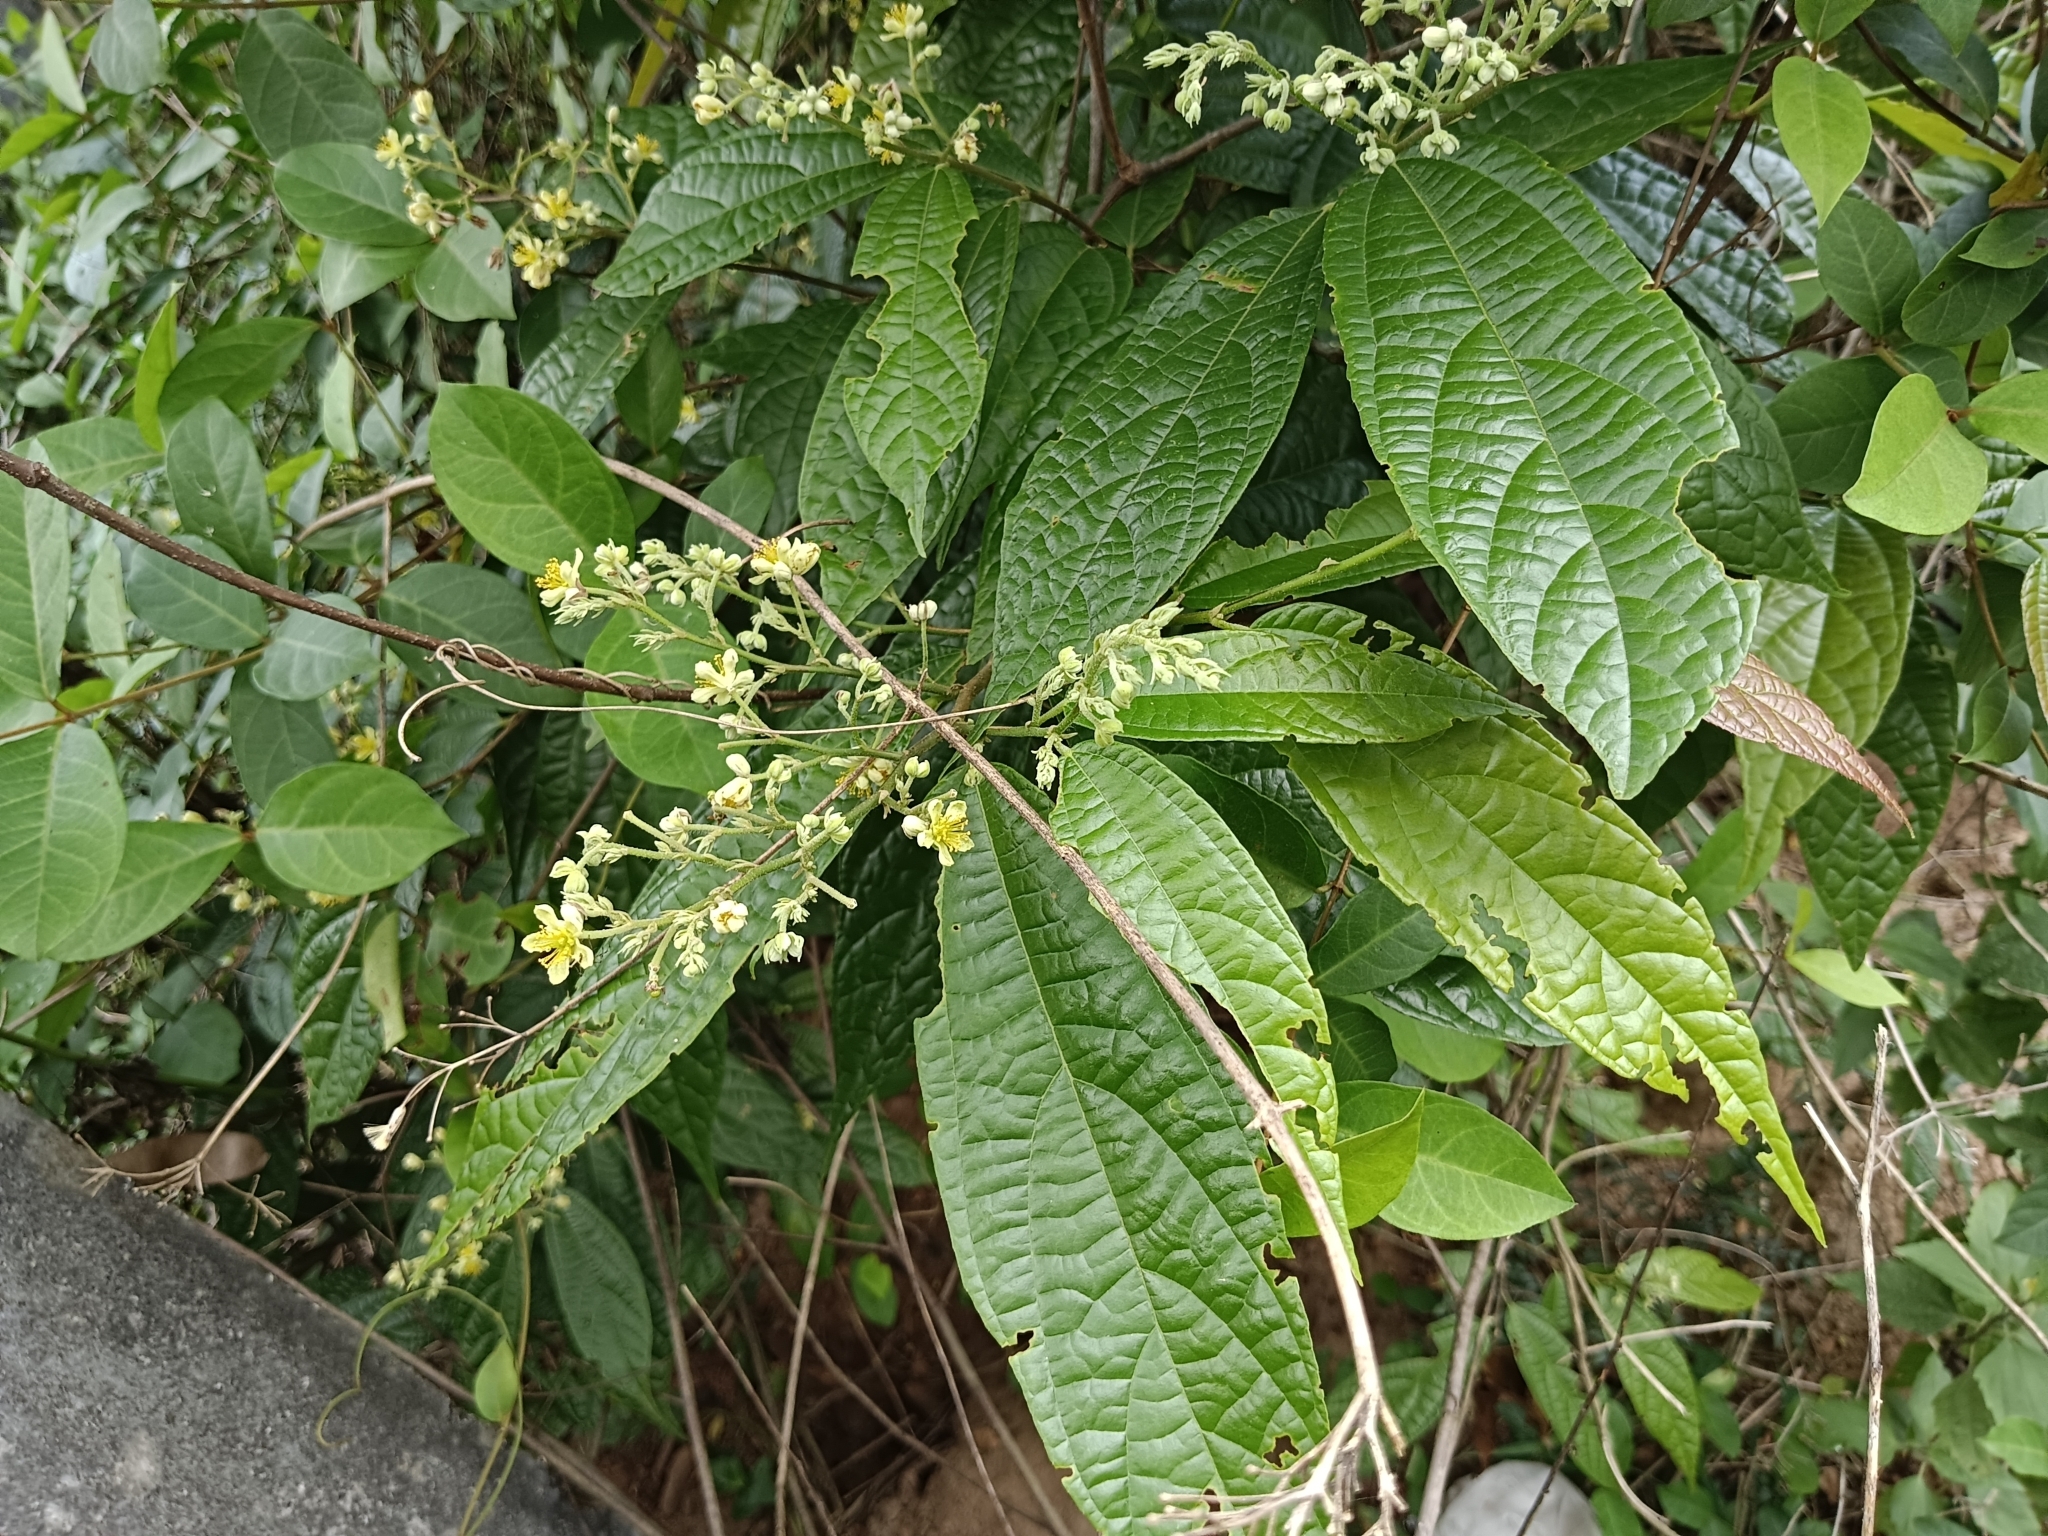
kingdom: Plantae
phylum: Tracheophyta
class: Magnoliopsida
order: Malvales
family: Malvaceae
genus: Microcos
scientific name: Microcos paniculata
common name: Microcos
